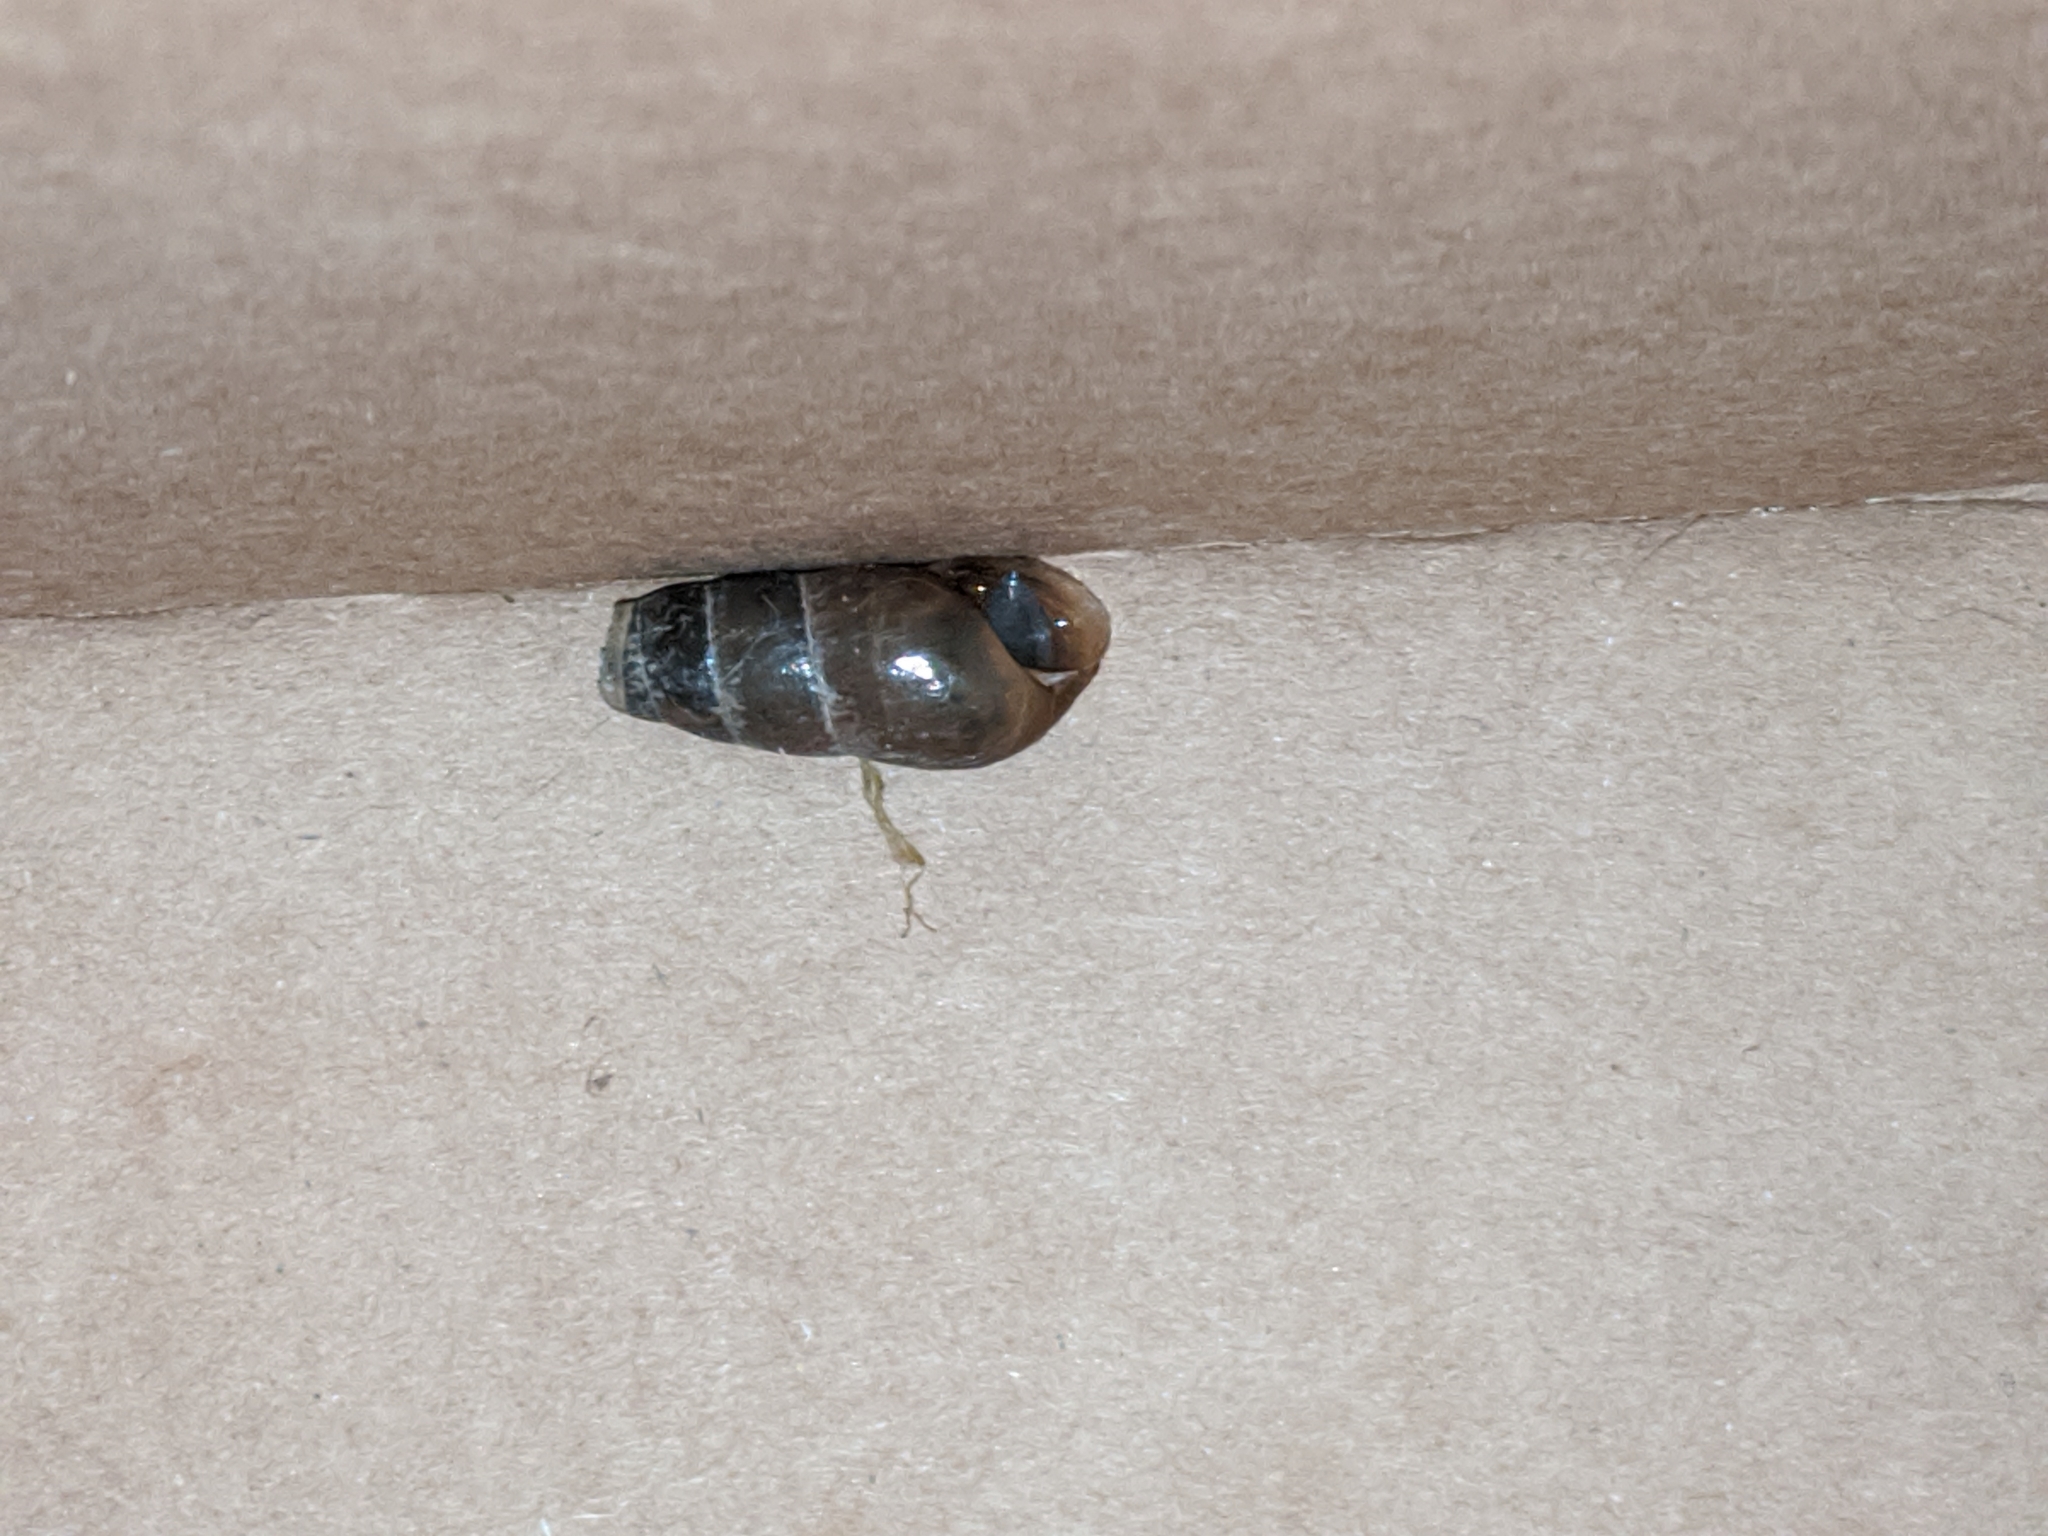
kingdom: Animalia
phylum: Mollusca
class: Gastropoda
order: Stylommatophora
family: Achatinidae
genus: Rumina
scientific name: Rumina decollata
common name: Decollate snail
